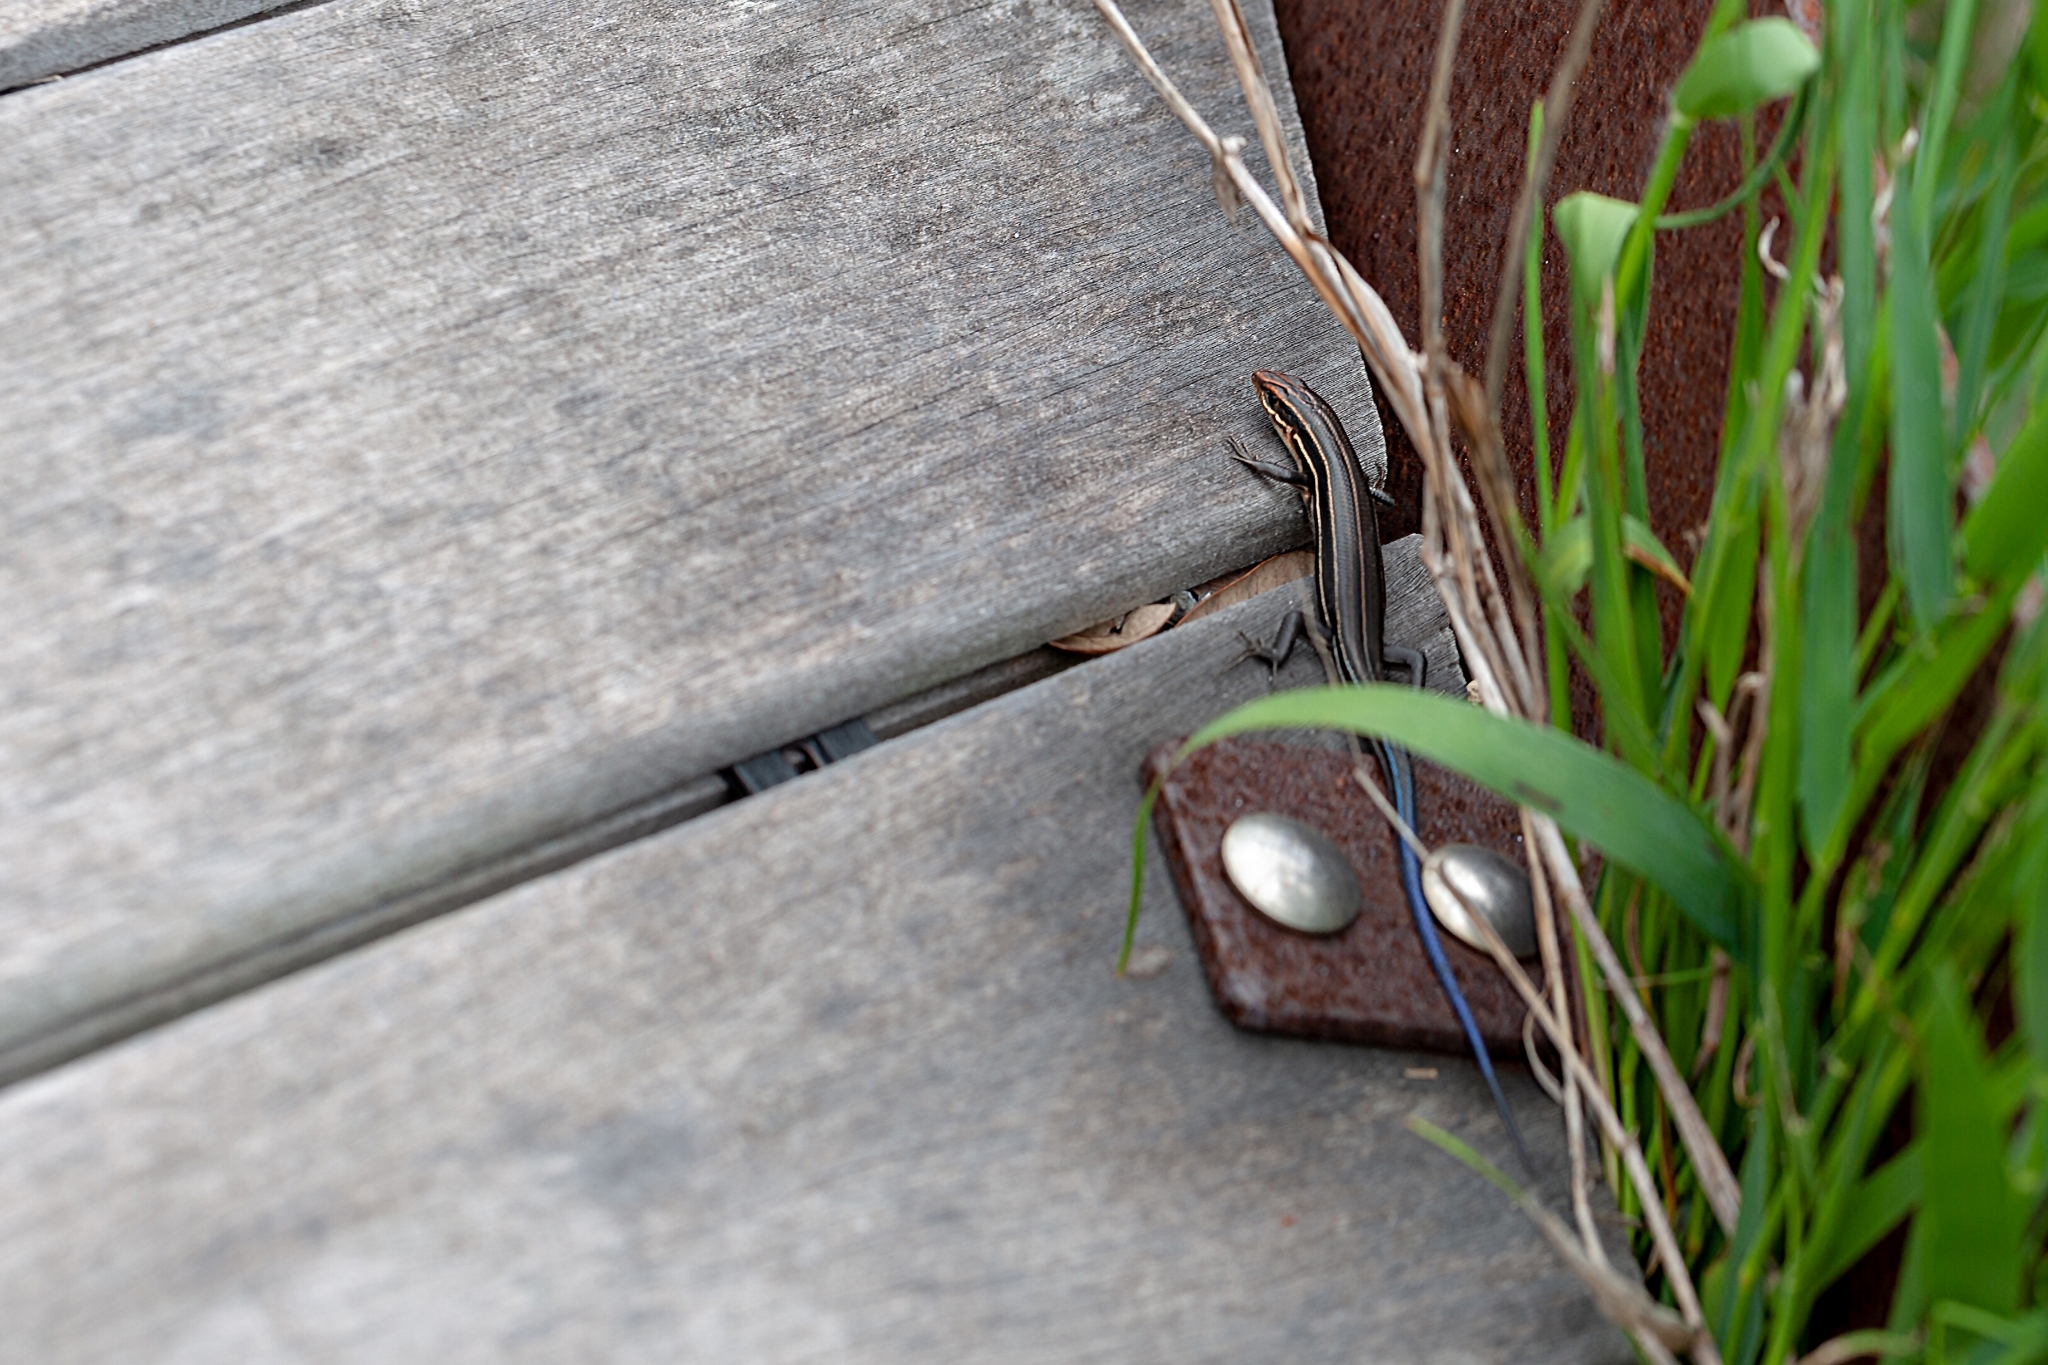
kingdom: Animalia
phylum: Chordata
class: Squamata
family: Scincidae
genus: Plestiodon
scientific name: Plestiodon inexpectatus
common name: Southeastern five-lined skink
